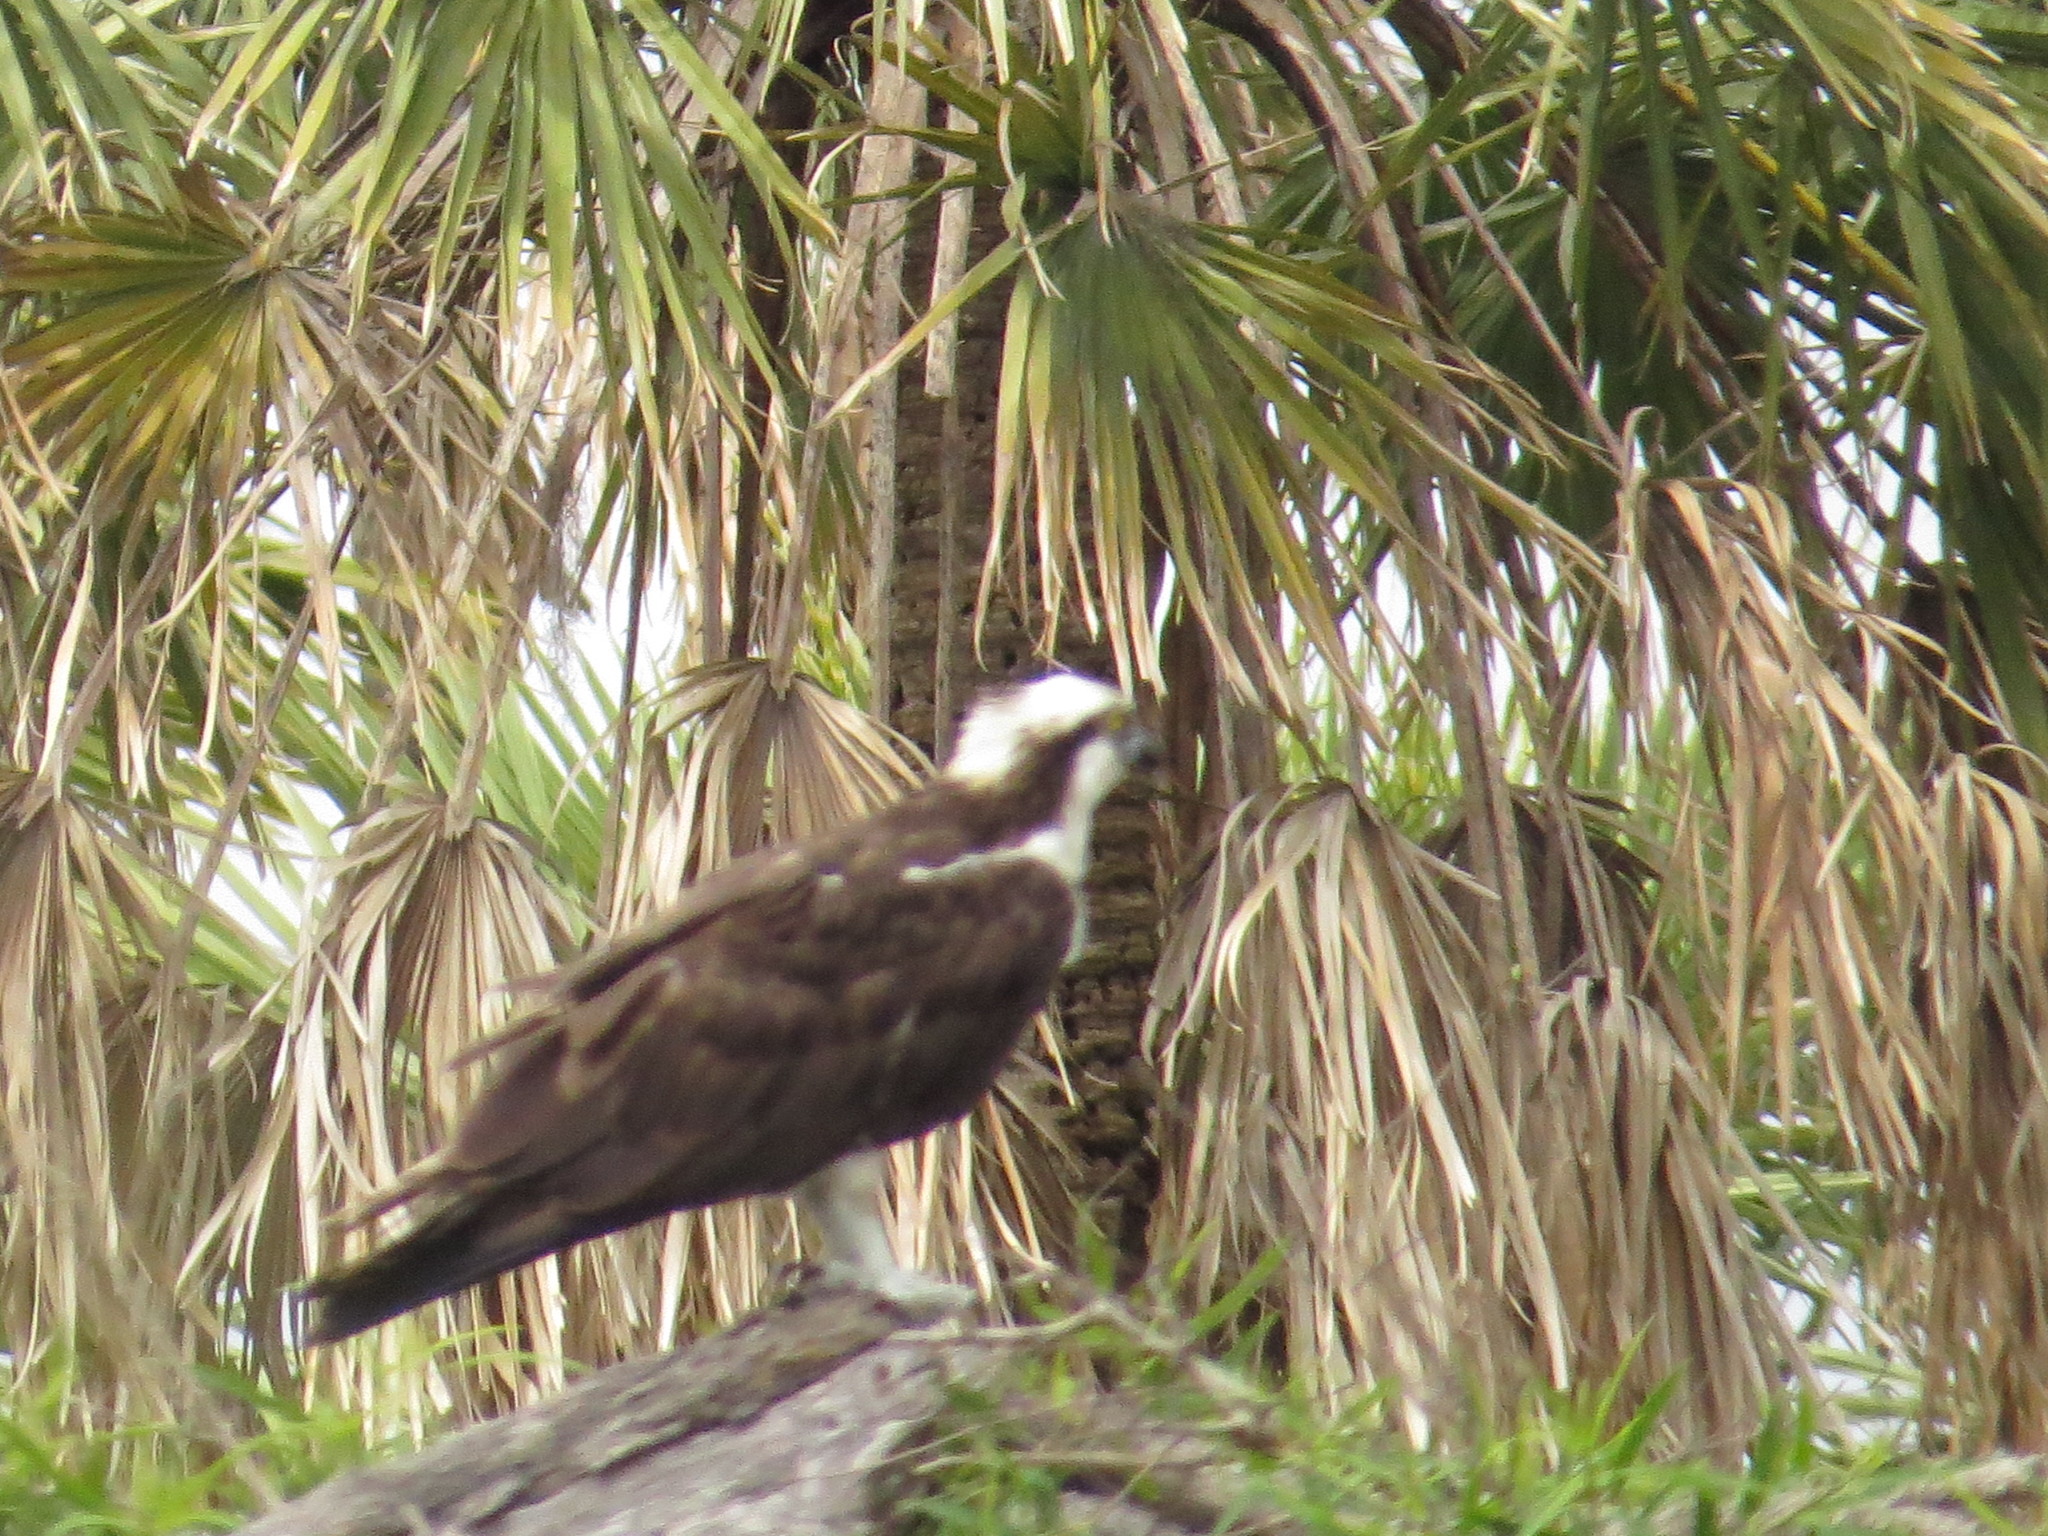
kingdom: Animalia
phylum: Chordata
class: Aves
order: Accipitriformes
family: Pandionidae
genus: Pandion
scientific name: Pandion haliaetus
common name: Osprey
